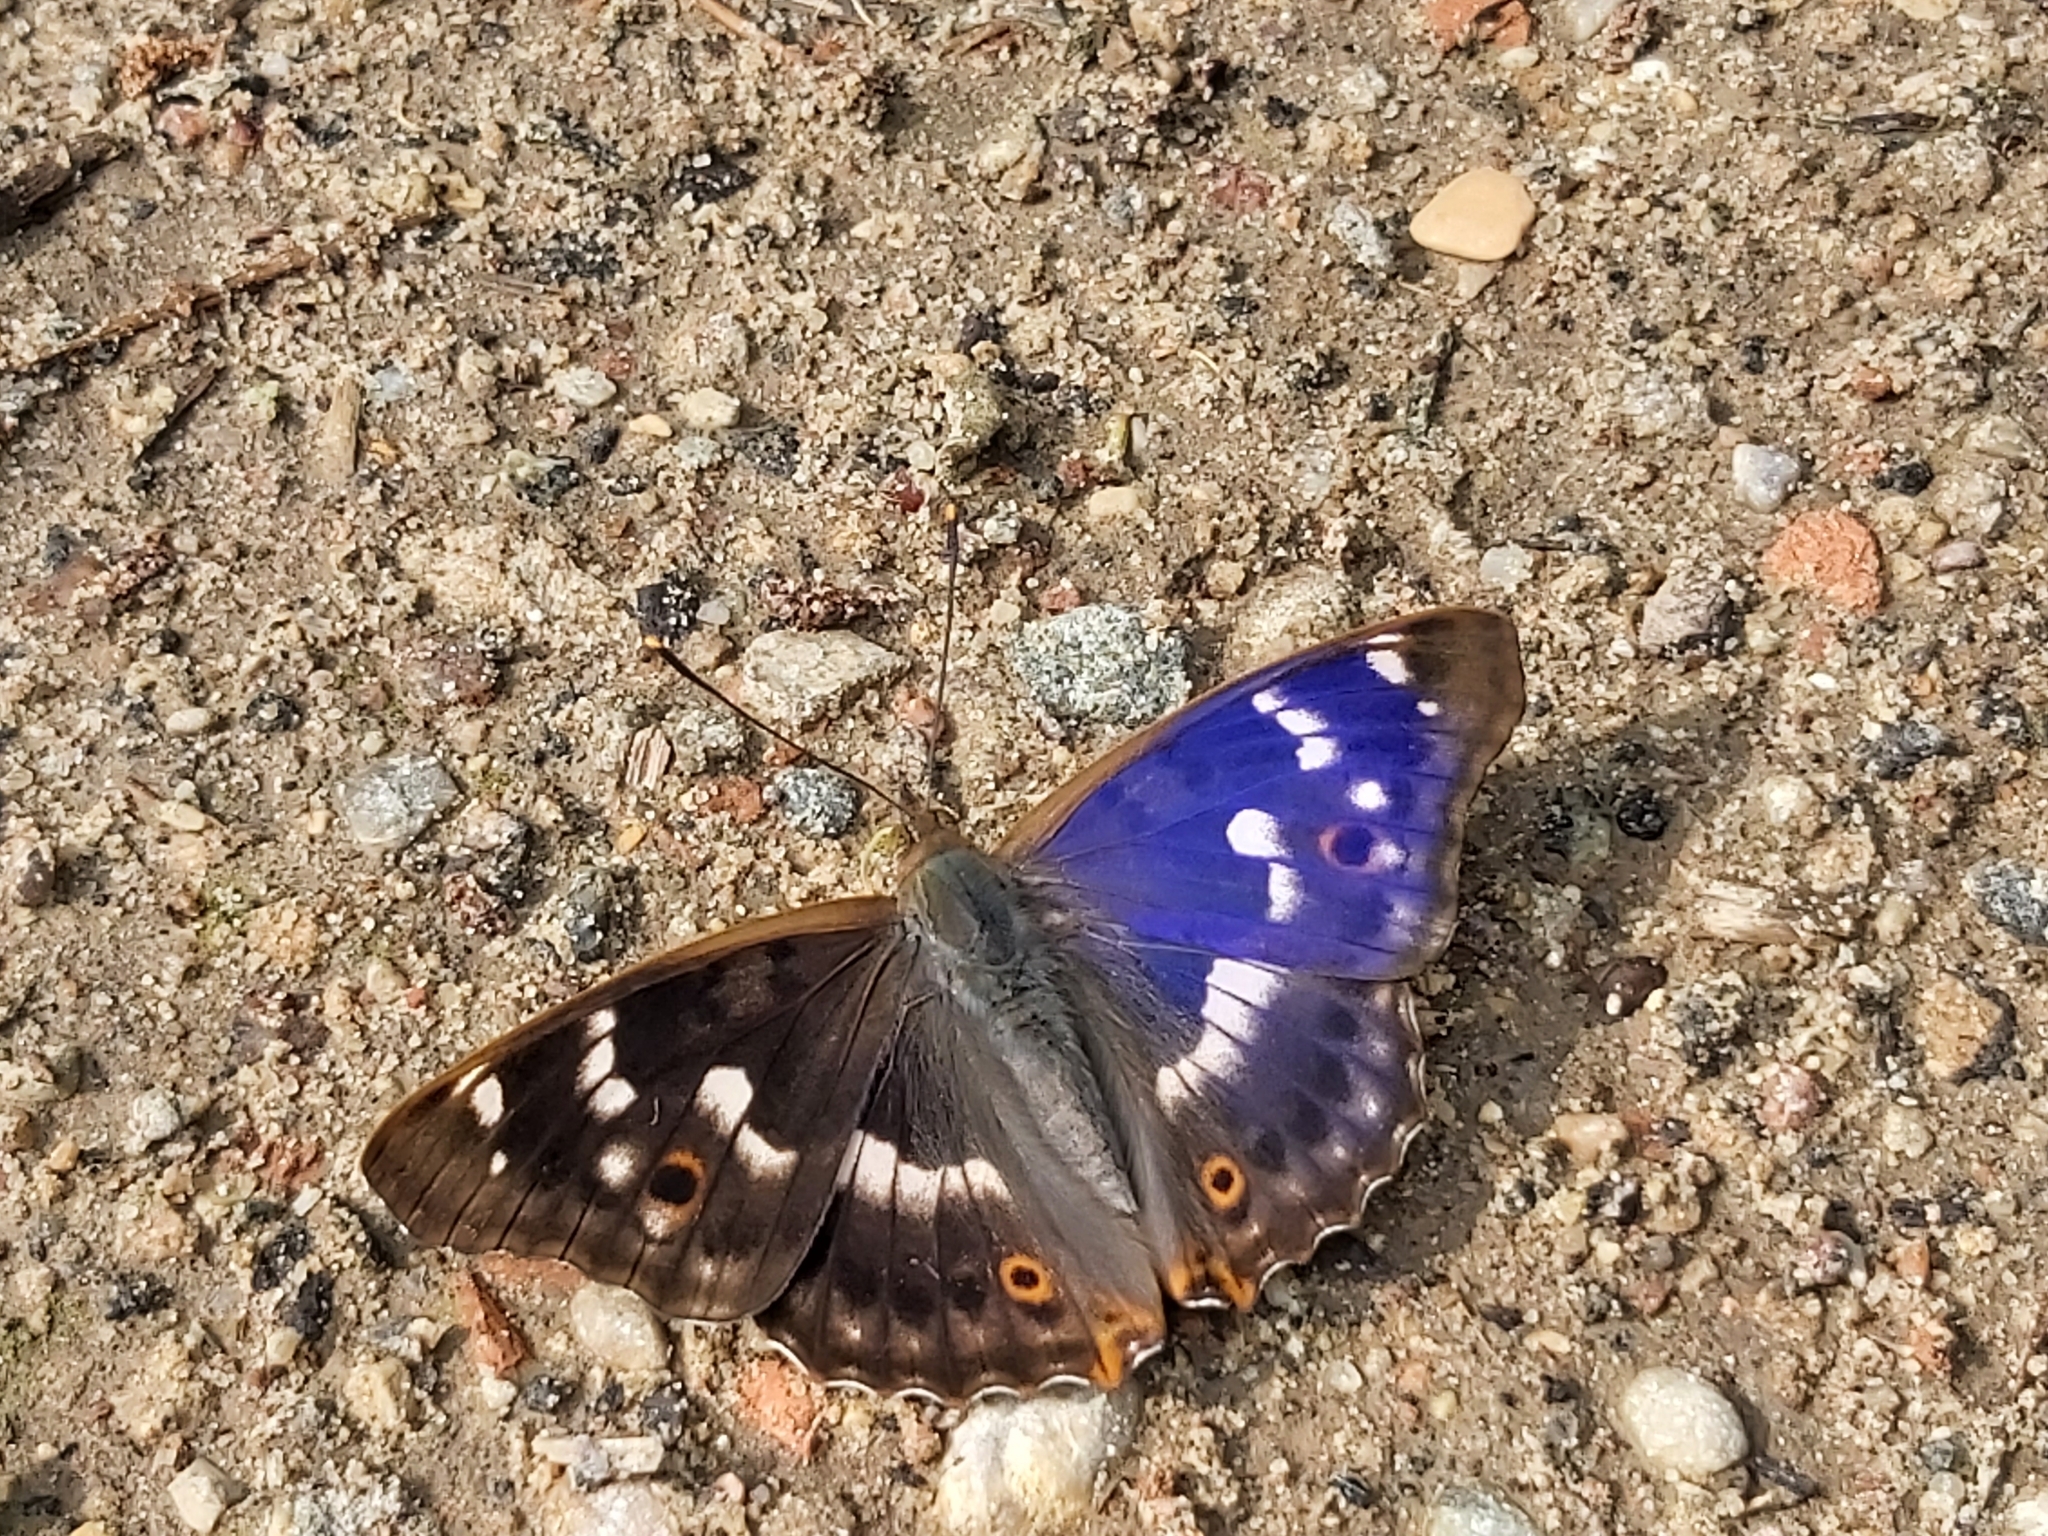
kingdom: Animalia
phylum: Arthropoda
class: Insecta
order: Lepidoptera
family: Nymphalidae
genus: Apatura
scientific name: Apatura ilia
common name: Lesser purple emperor
